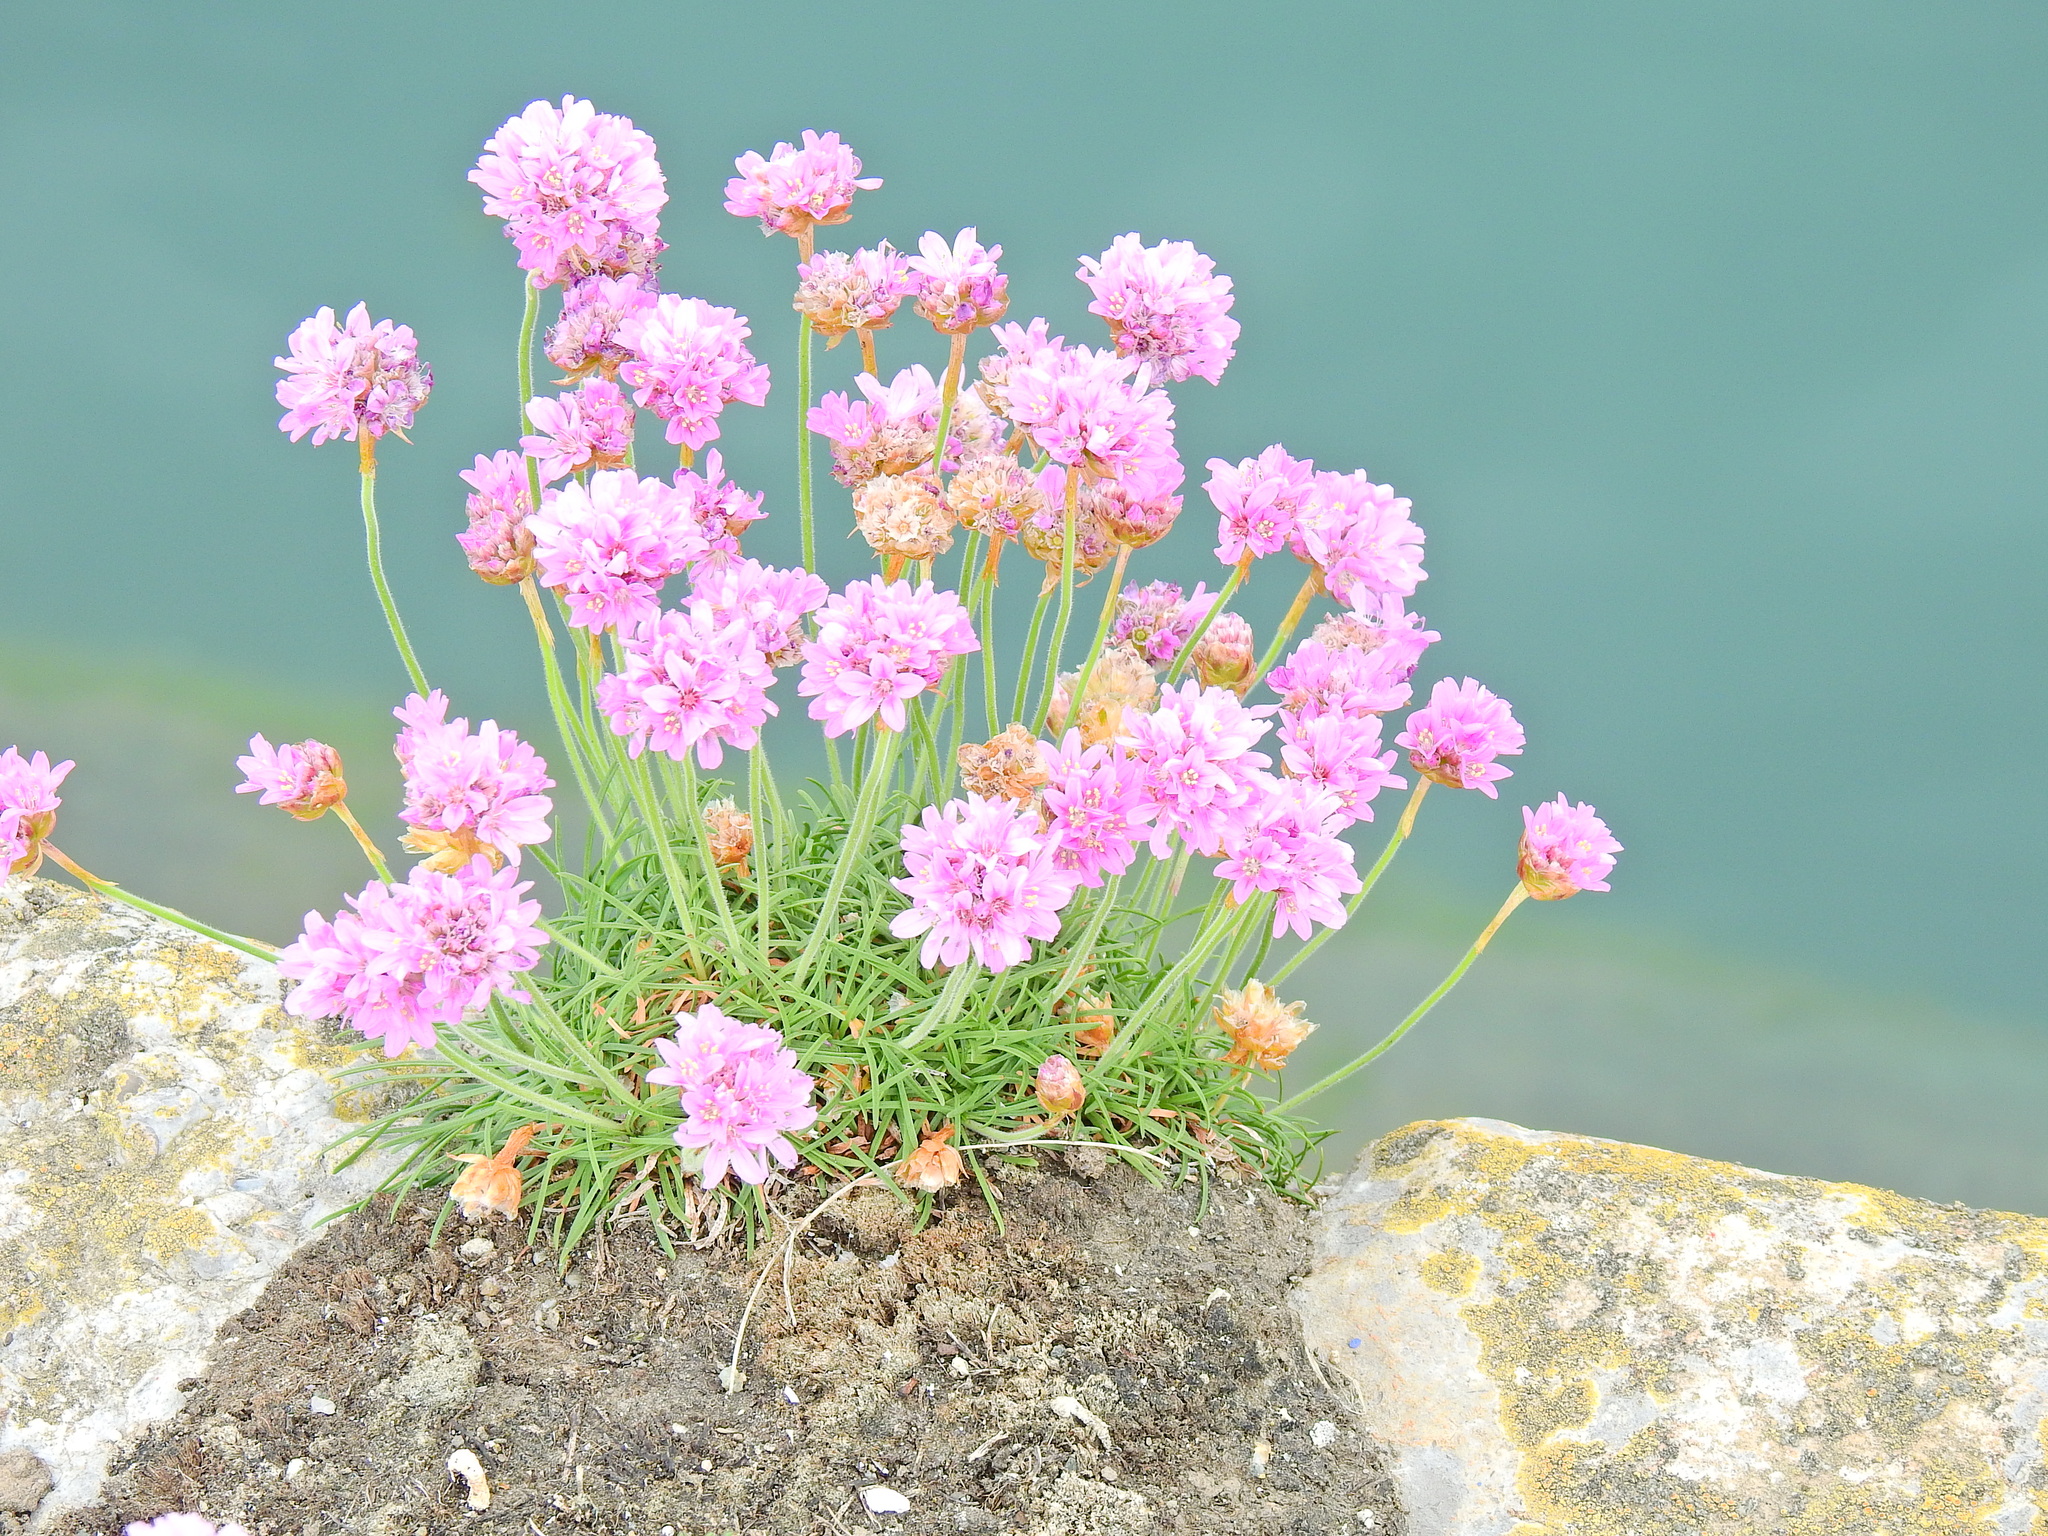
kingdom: Plantae
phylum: Tracheophyta
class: Magnoliopsida
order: Caryophyllales
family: Plumbaginaceae
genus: Armeria
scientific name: Armeria maritima
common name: Thrift
